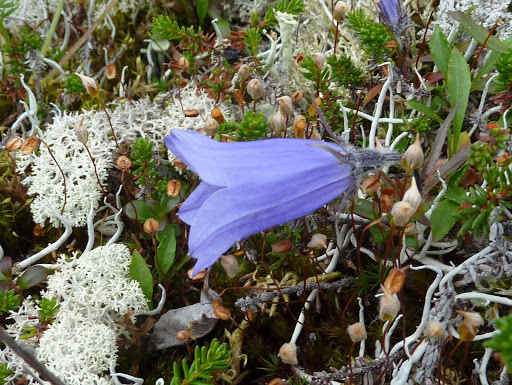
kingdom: Plantae
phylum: Tracheophyta
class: Magnoliopsida
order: Asterales
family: Campanulaceae
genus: Campanula
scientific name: Campanula lasiocarpa
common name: Mountain harebell
